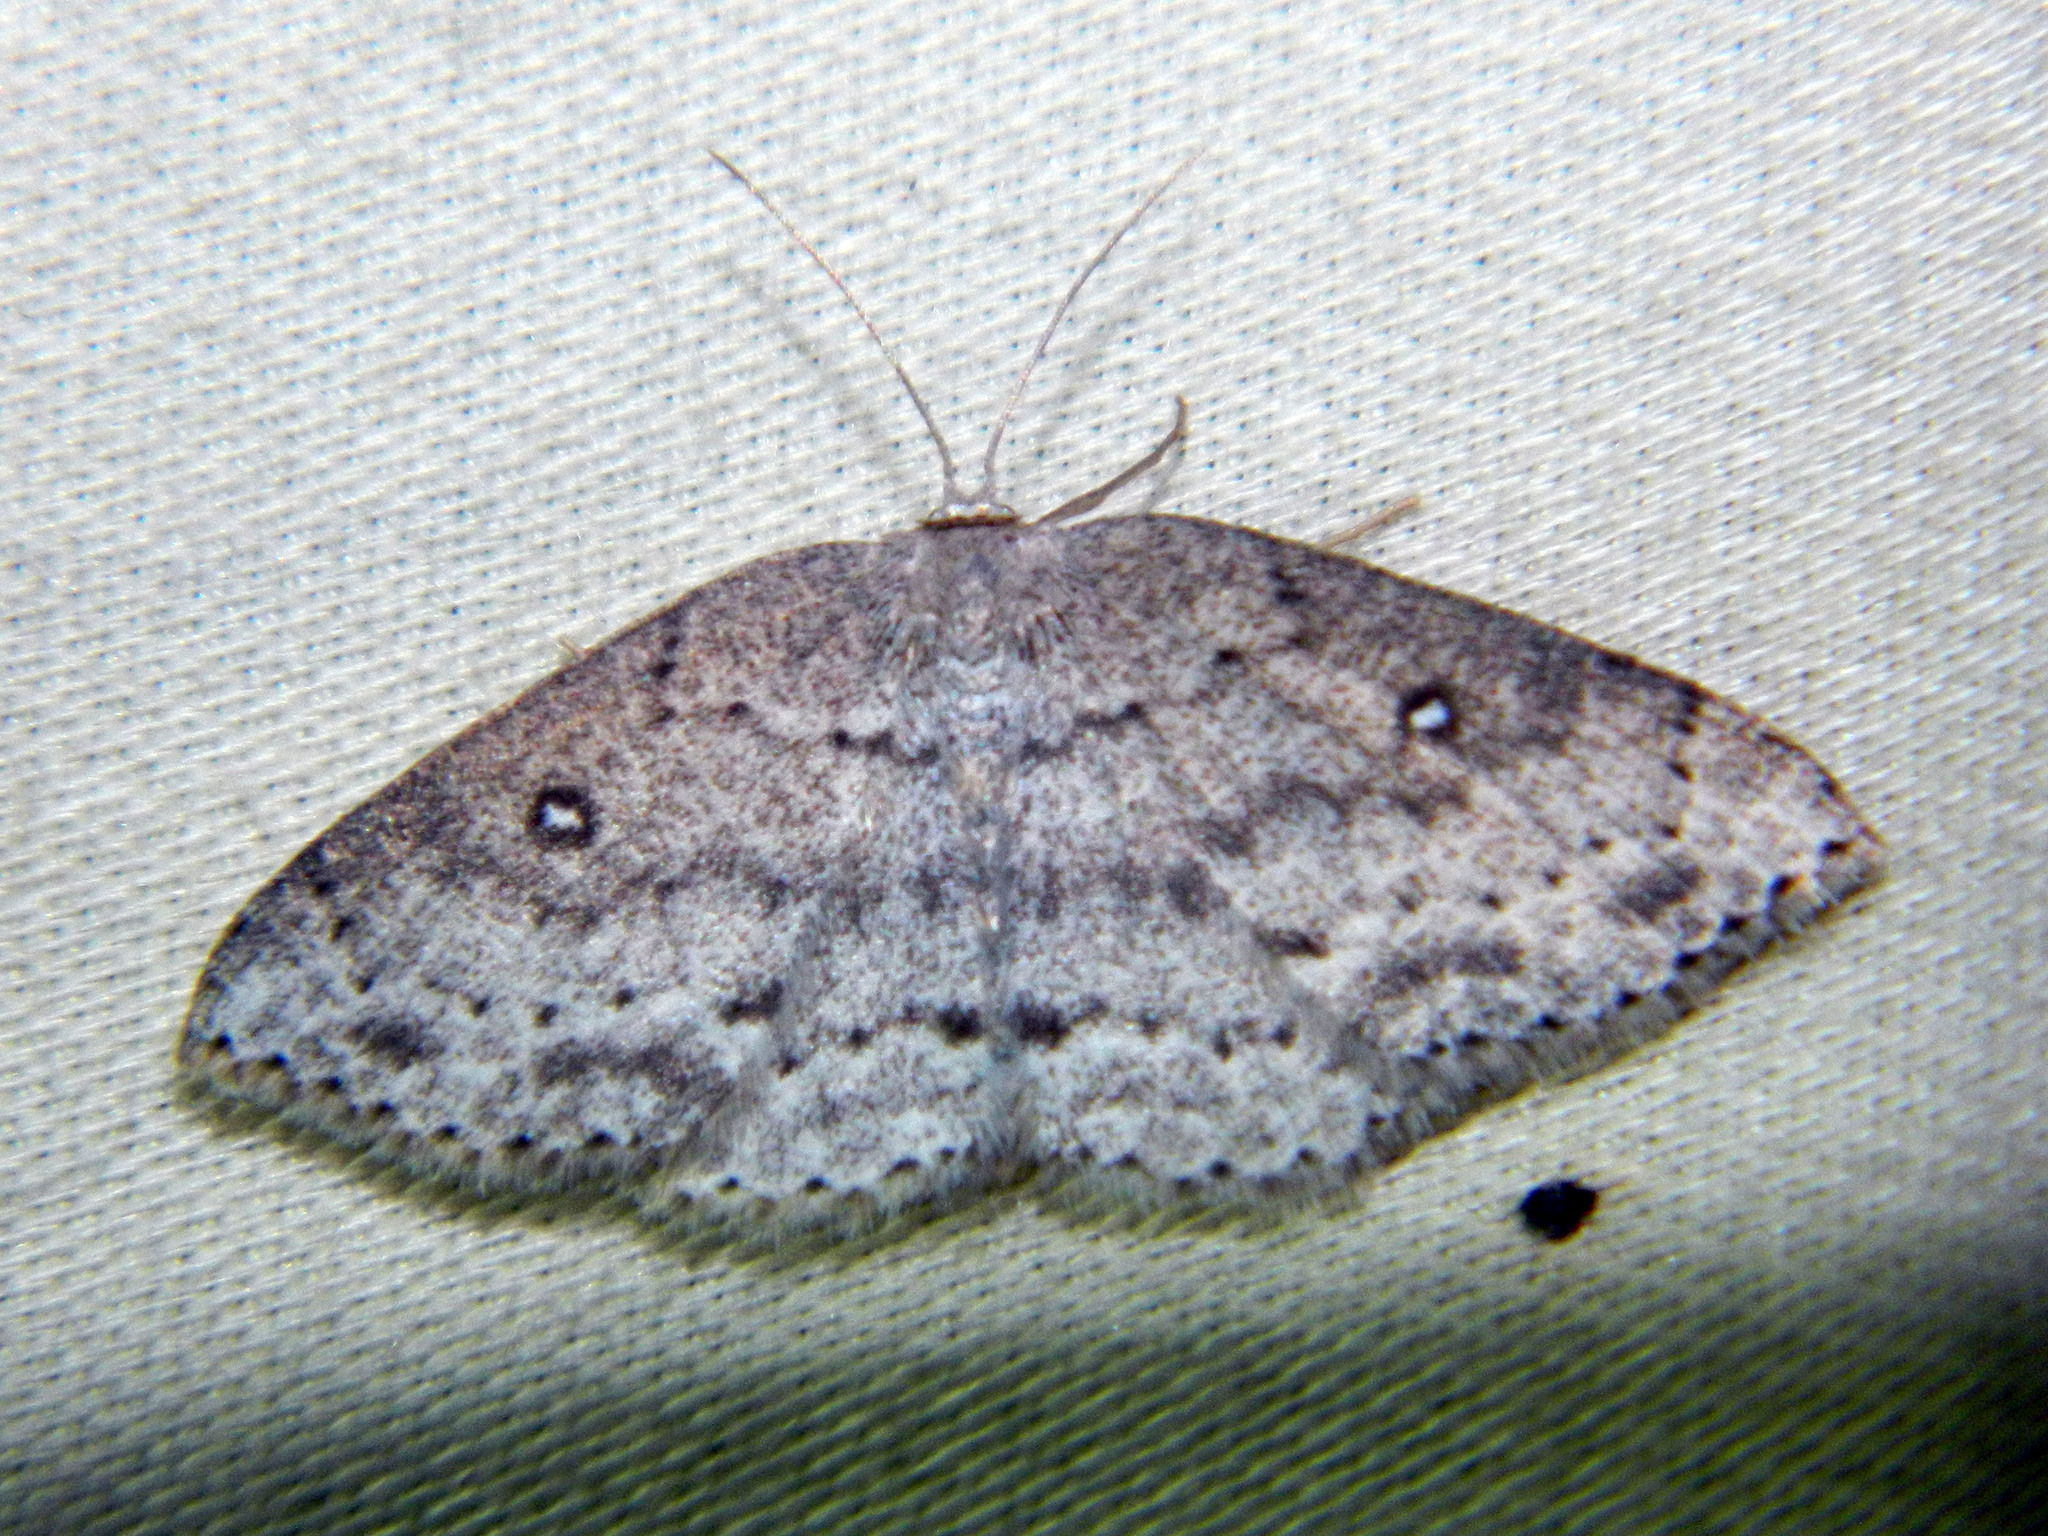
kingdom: Animalia
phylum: Arthropoda
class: Insecta
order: Lepidoptera
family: Geometridae
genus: Cyclophora
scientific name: Cyclophora pendulinaria
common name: Sweet fern geometer
